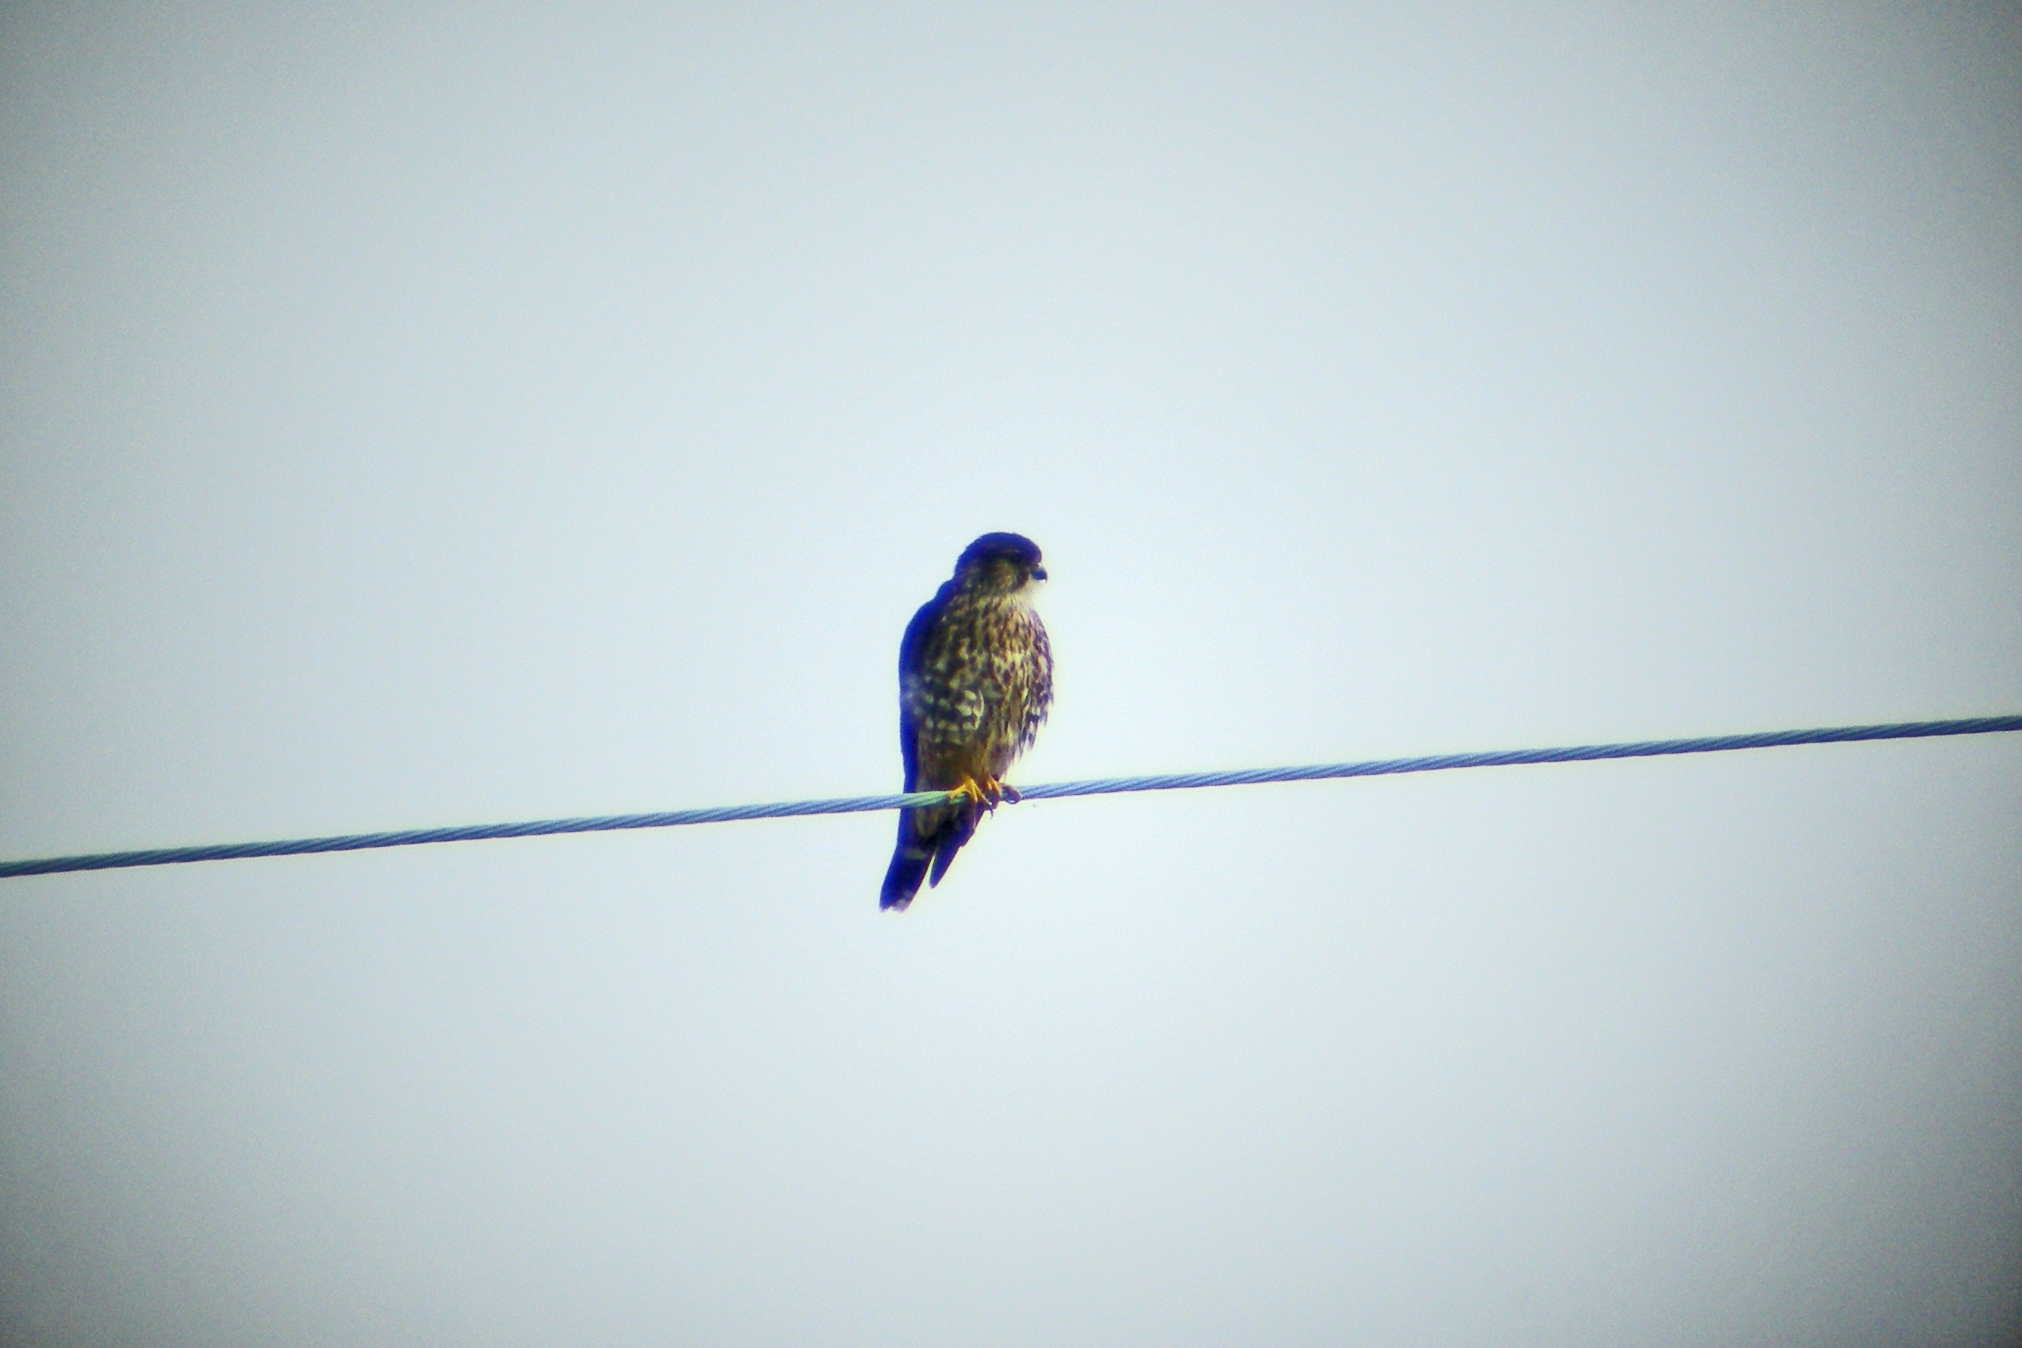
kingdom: Animalia
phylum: Chordata
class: Aves
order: Falconiformes
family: Falconidae
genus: Falco
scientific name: Falco columbarius
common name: Merlin
